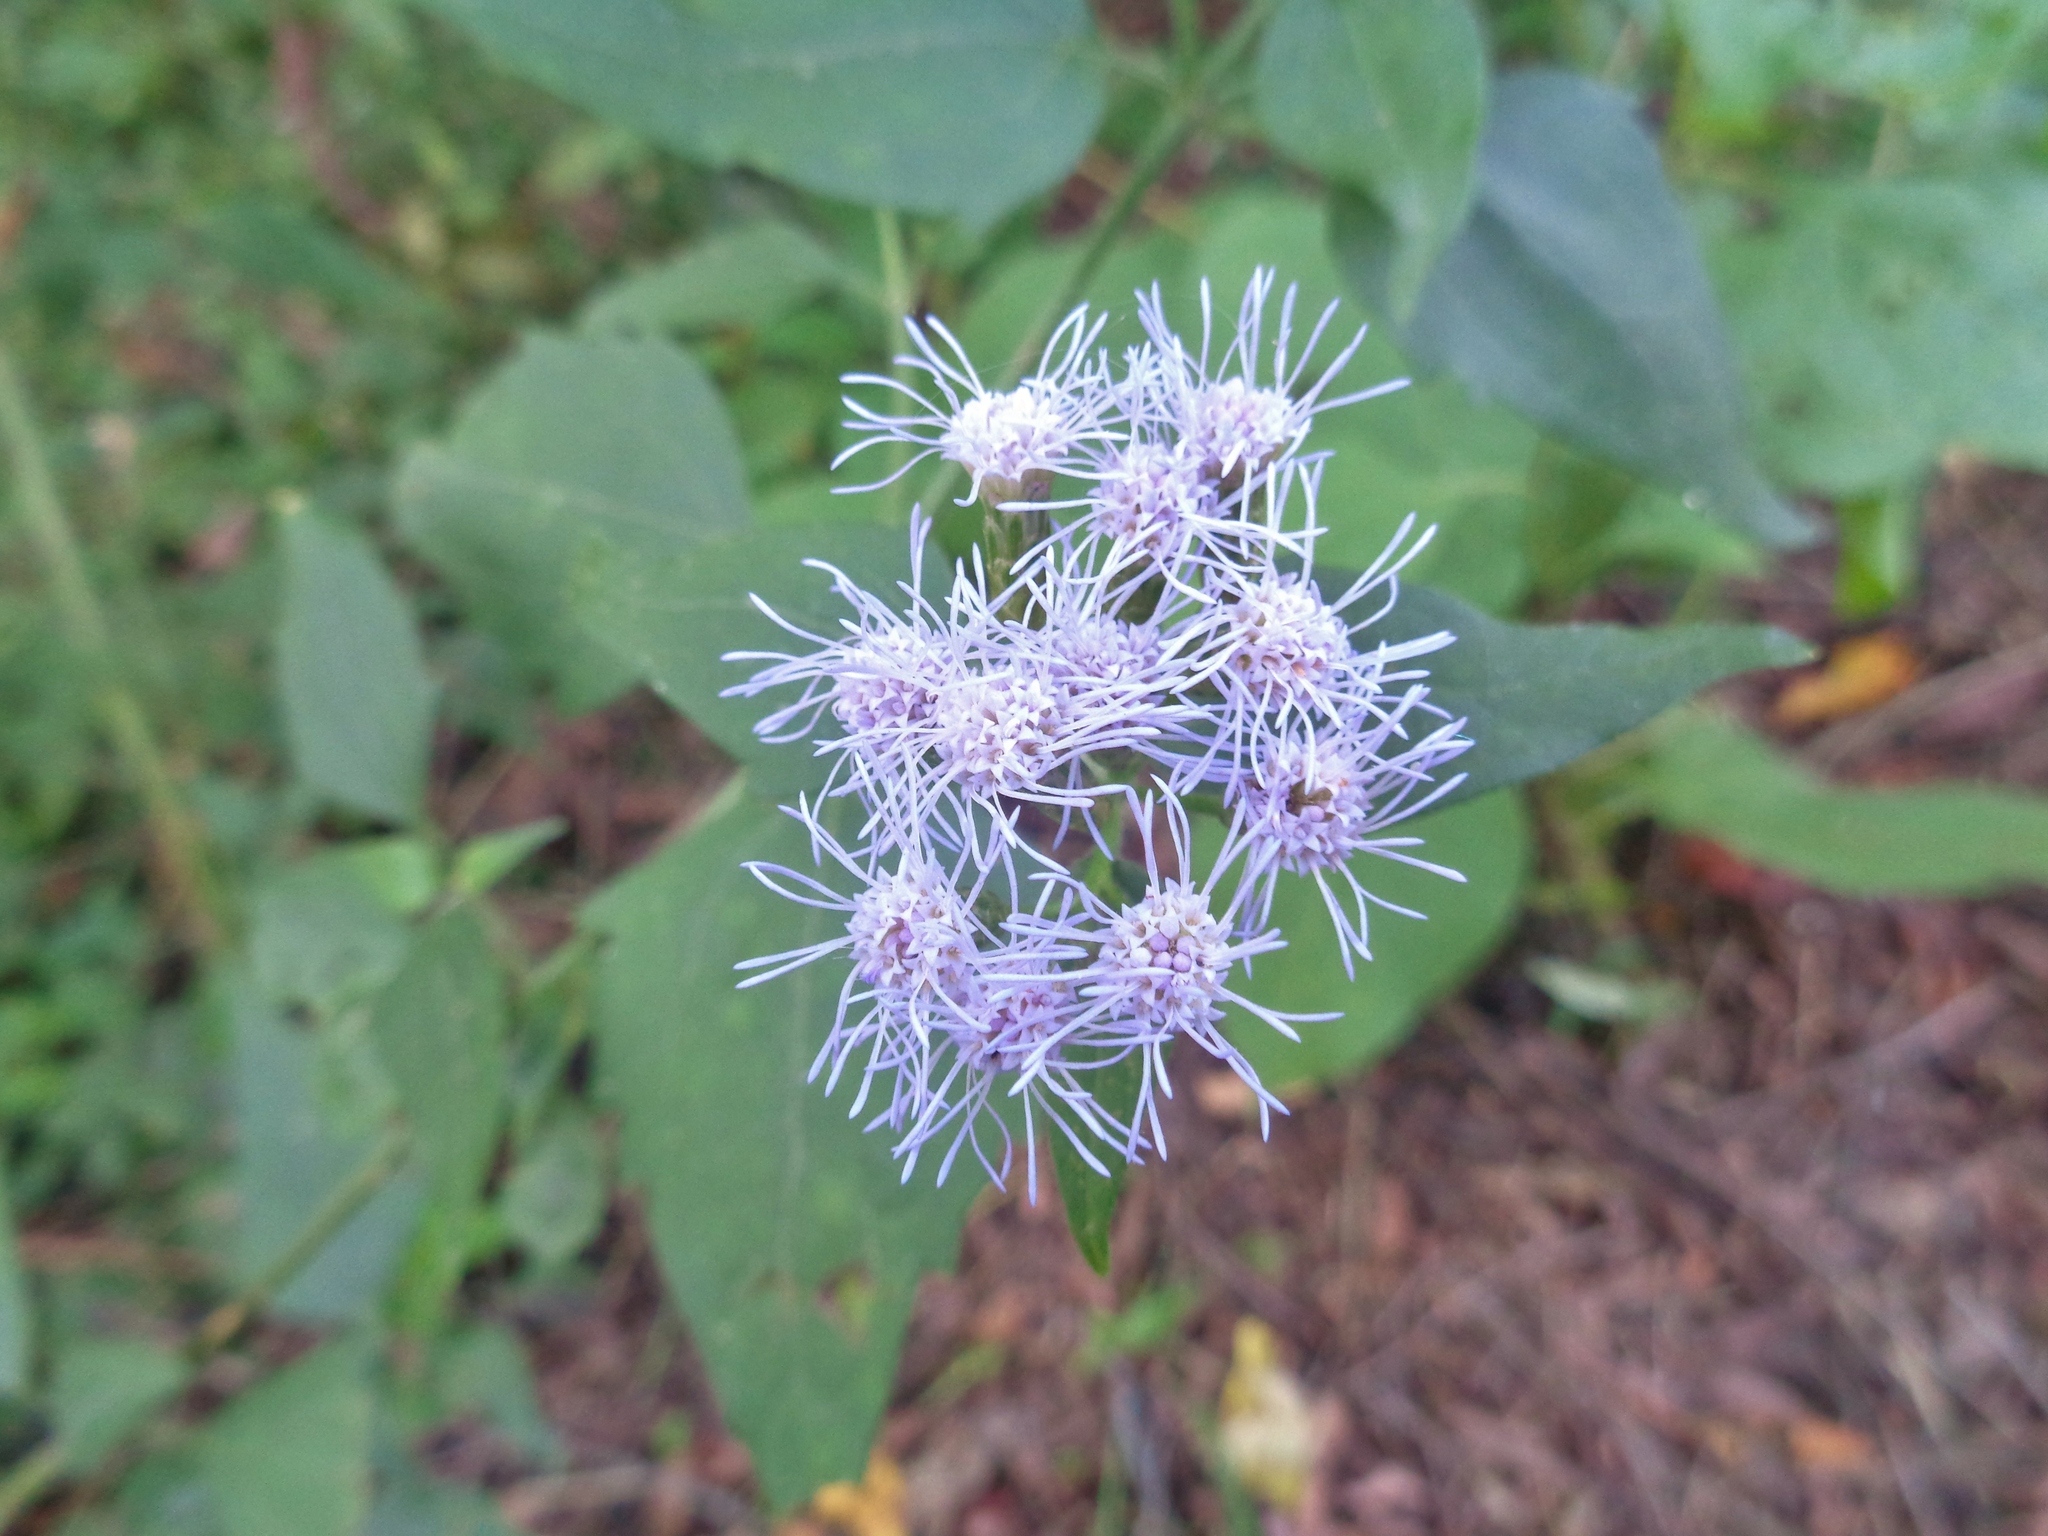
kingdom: Plantae
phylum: Tracheophyta
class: Magnoliopsida
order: Asterales
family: Asteraceae
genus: Chromolaena
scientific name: Chromolaena odorata
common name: Siamweed
